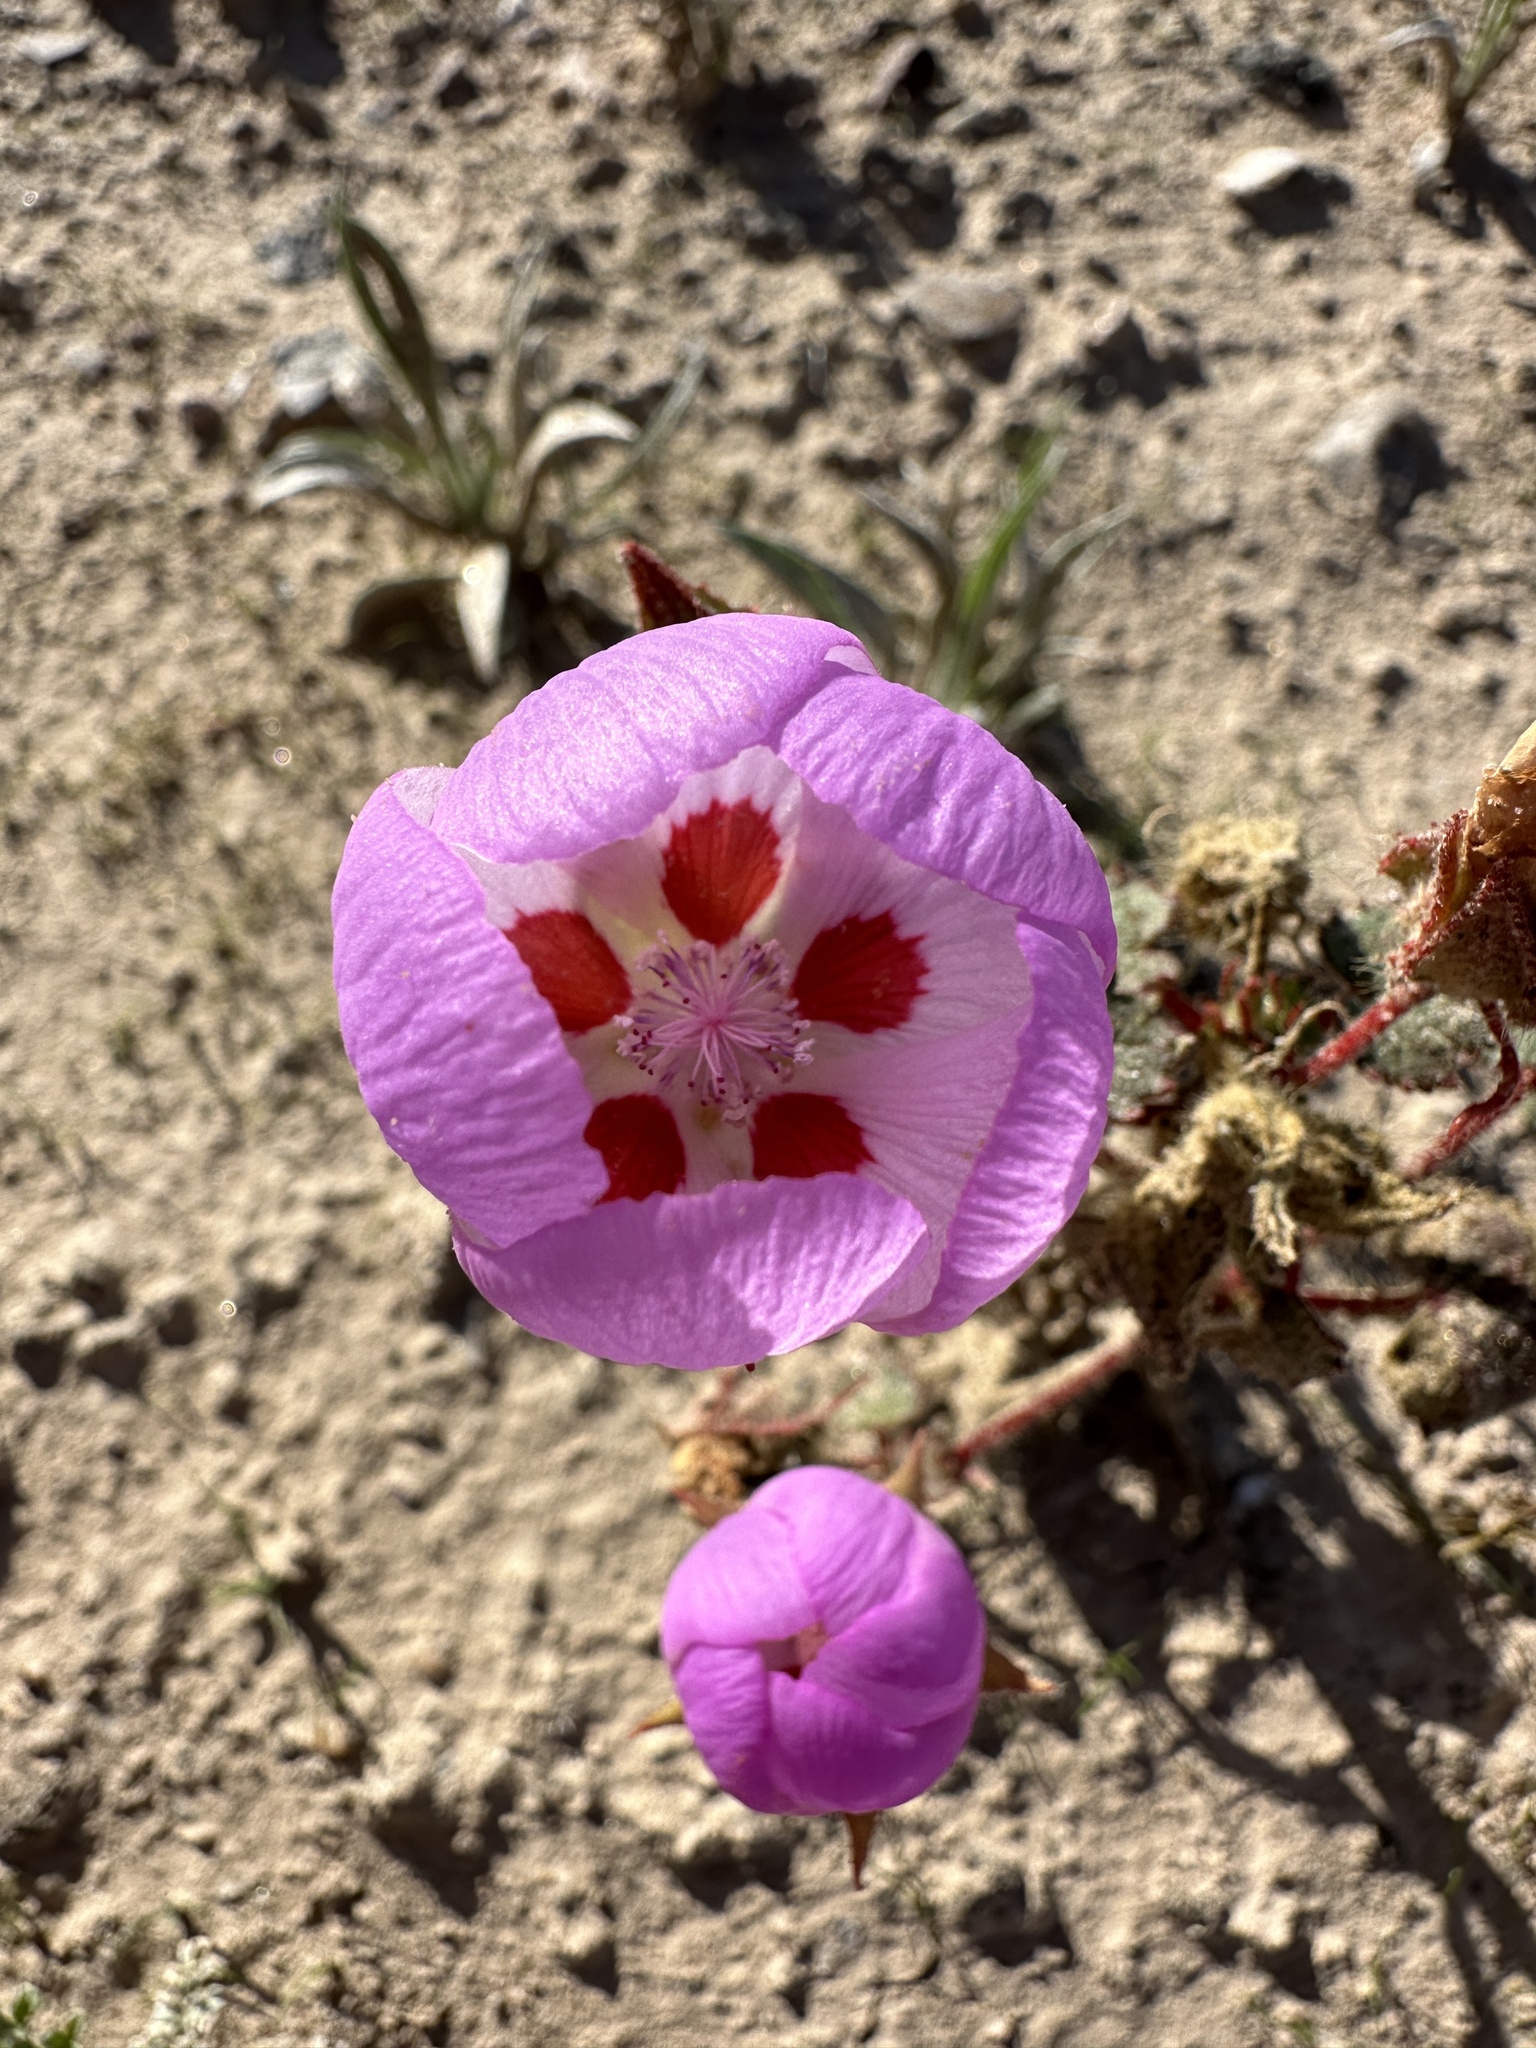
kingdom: Plantae
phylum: Tracheophyta
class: Magnoliopsida
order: Malvales
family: Malvaceae
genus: Eremalche
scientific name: Eremalche rotundifolia
